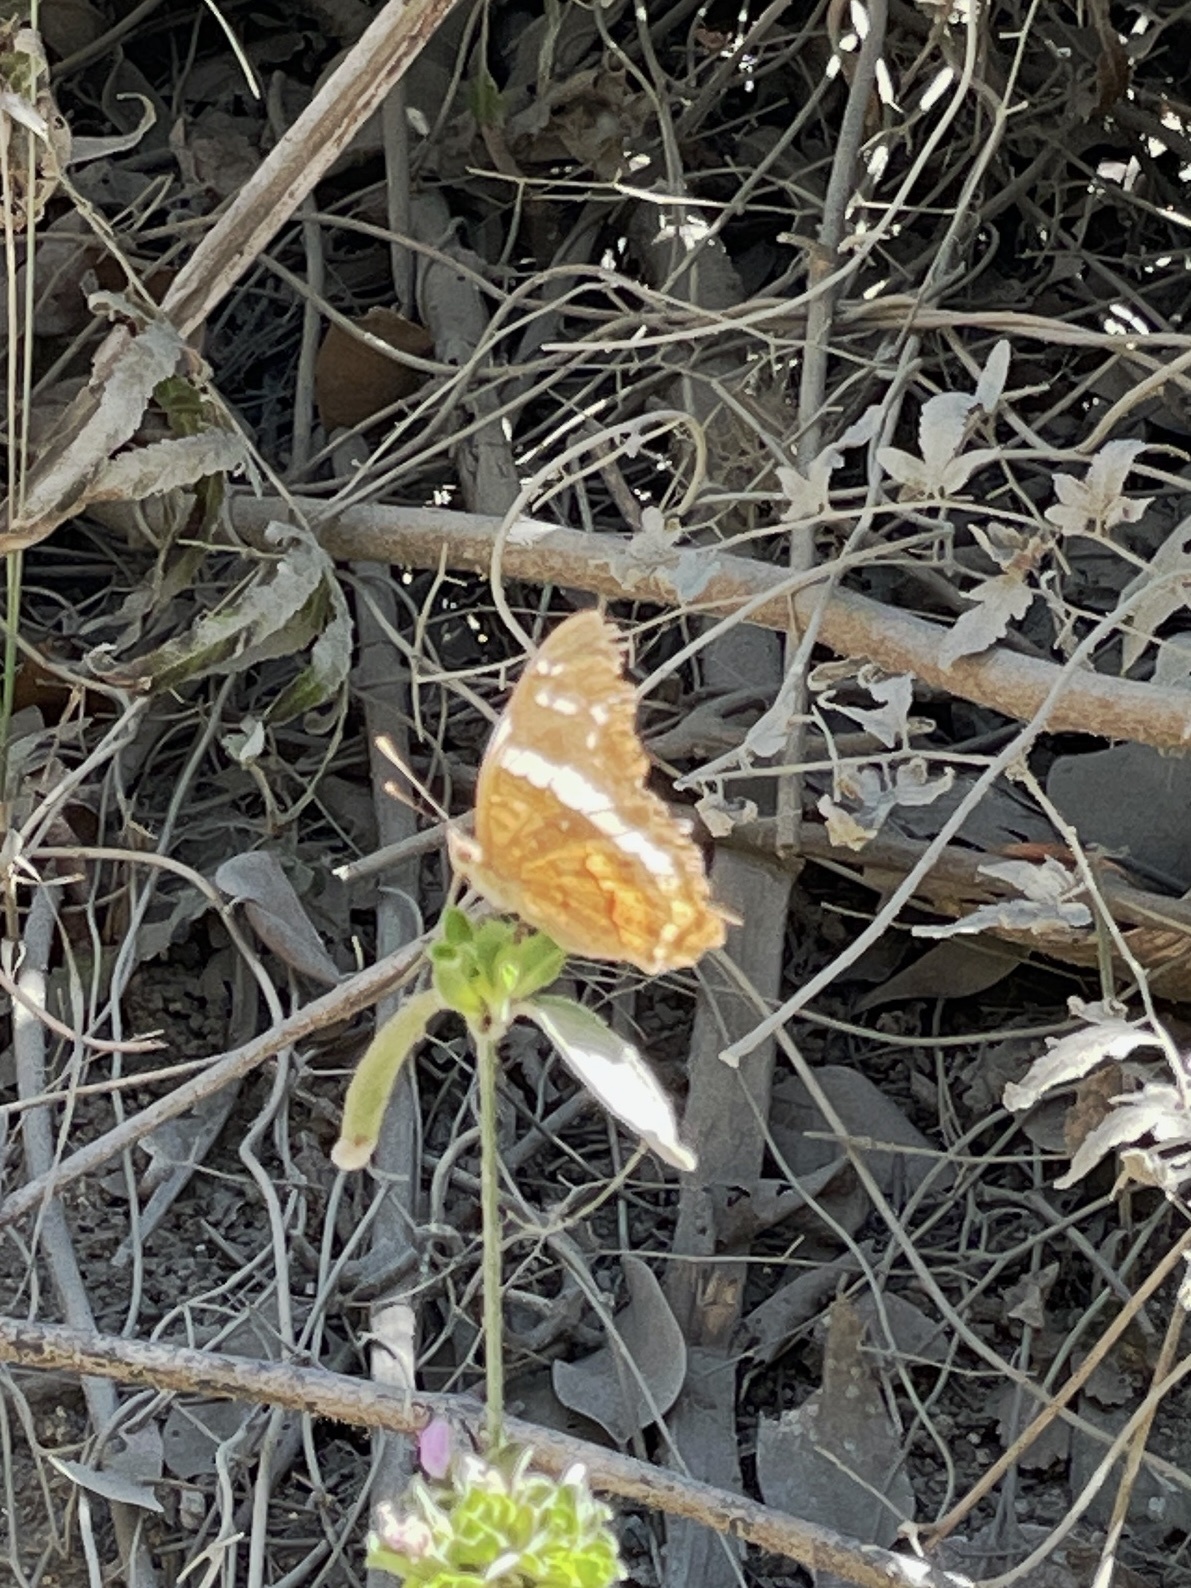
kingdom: Animalia
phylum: Arthropoda
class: Insecta
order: Lepidoptera
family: Nymphalidae
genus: Anartia
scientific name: Anartia fatima
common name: Banded peacock
